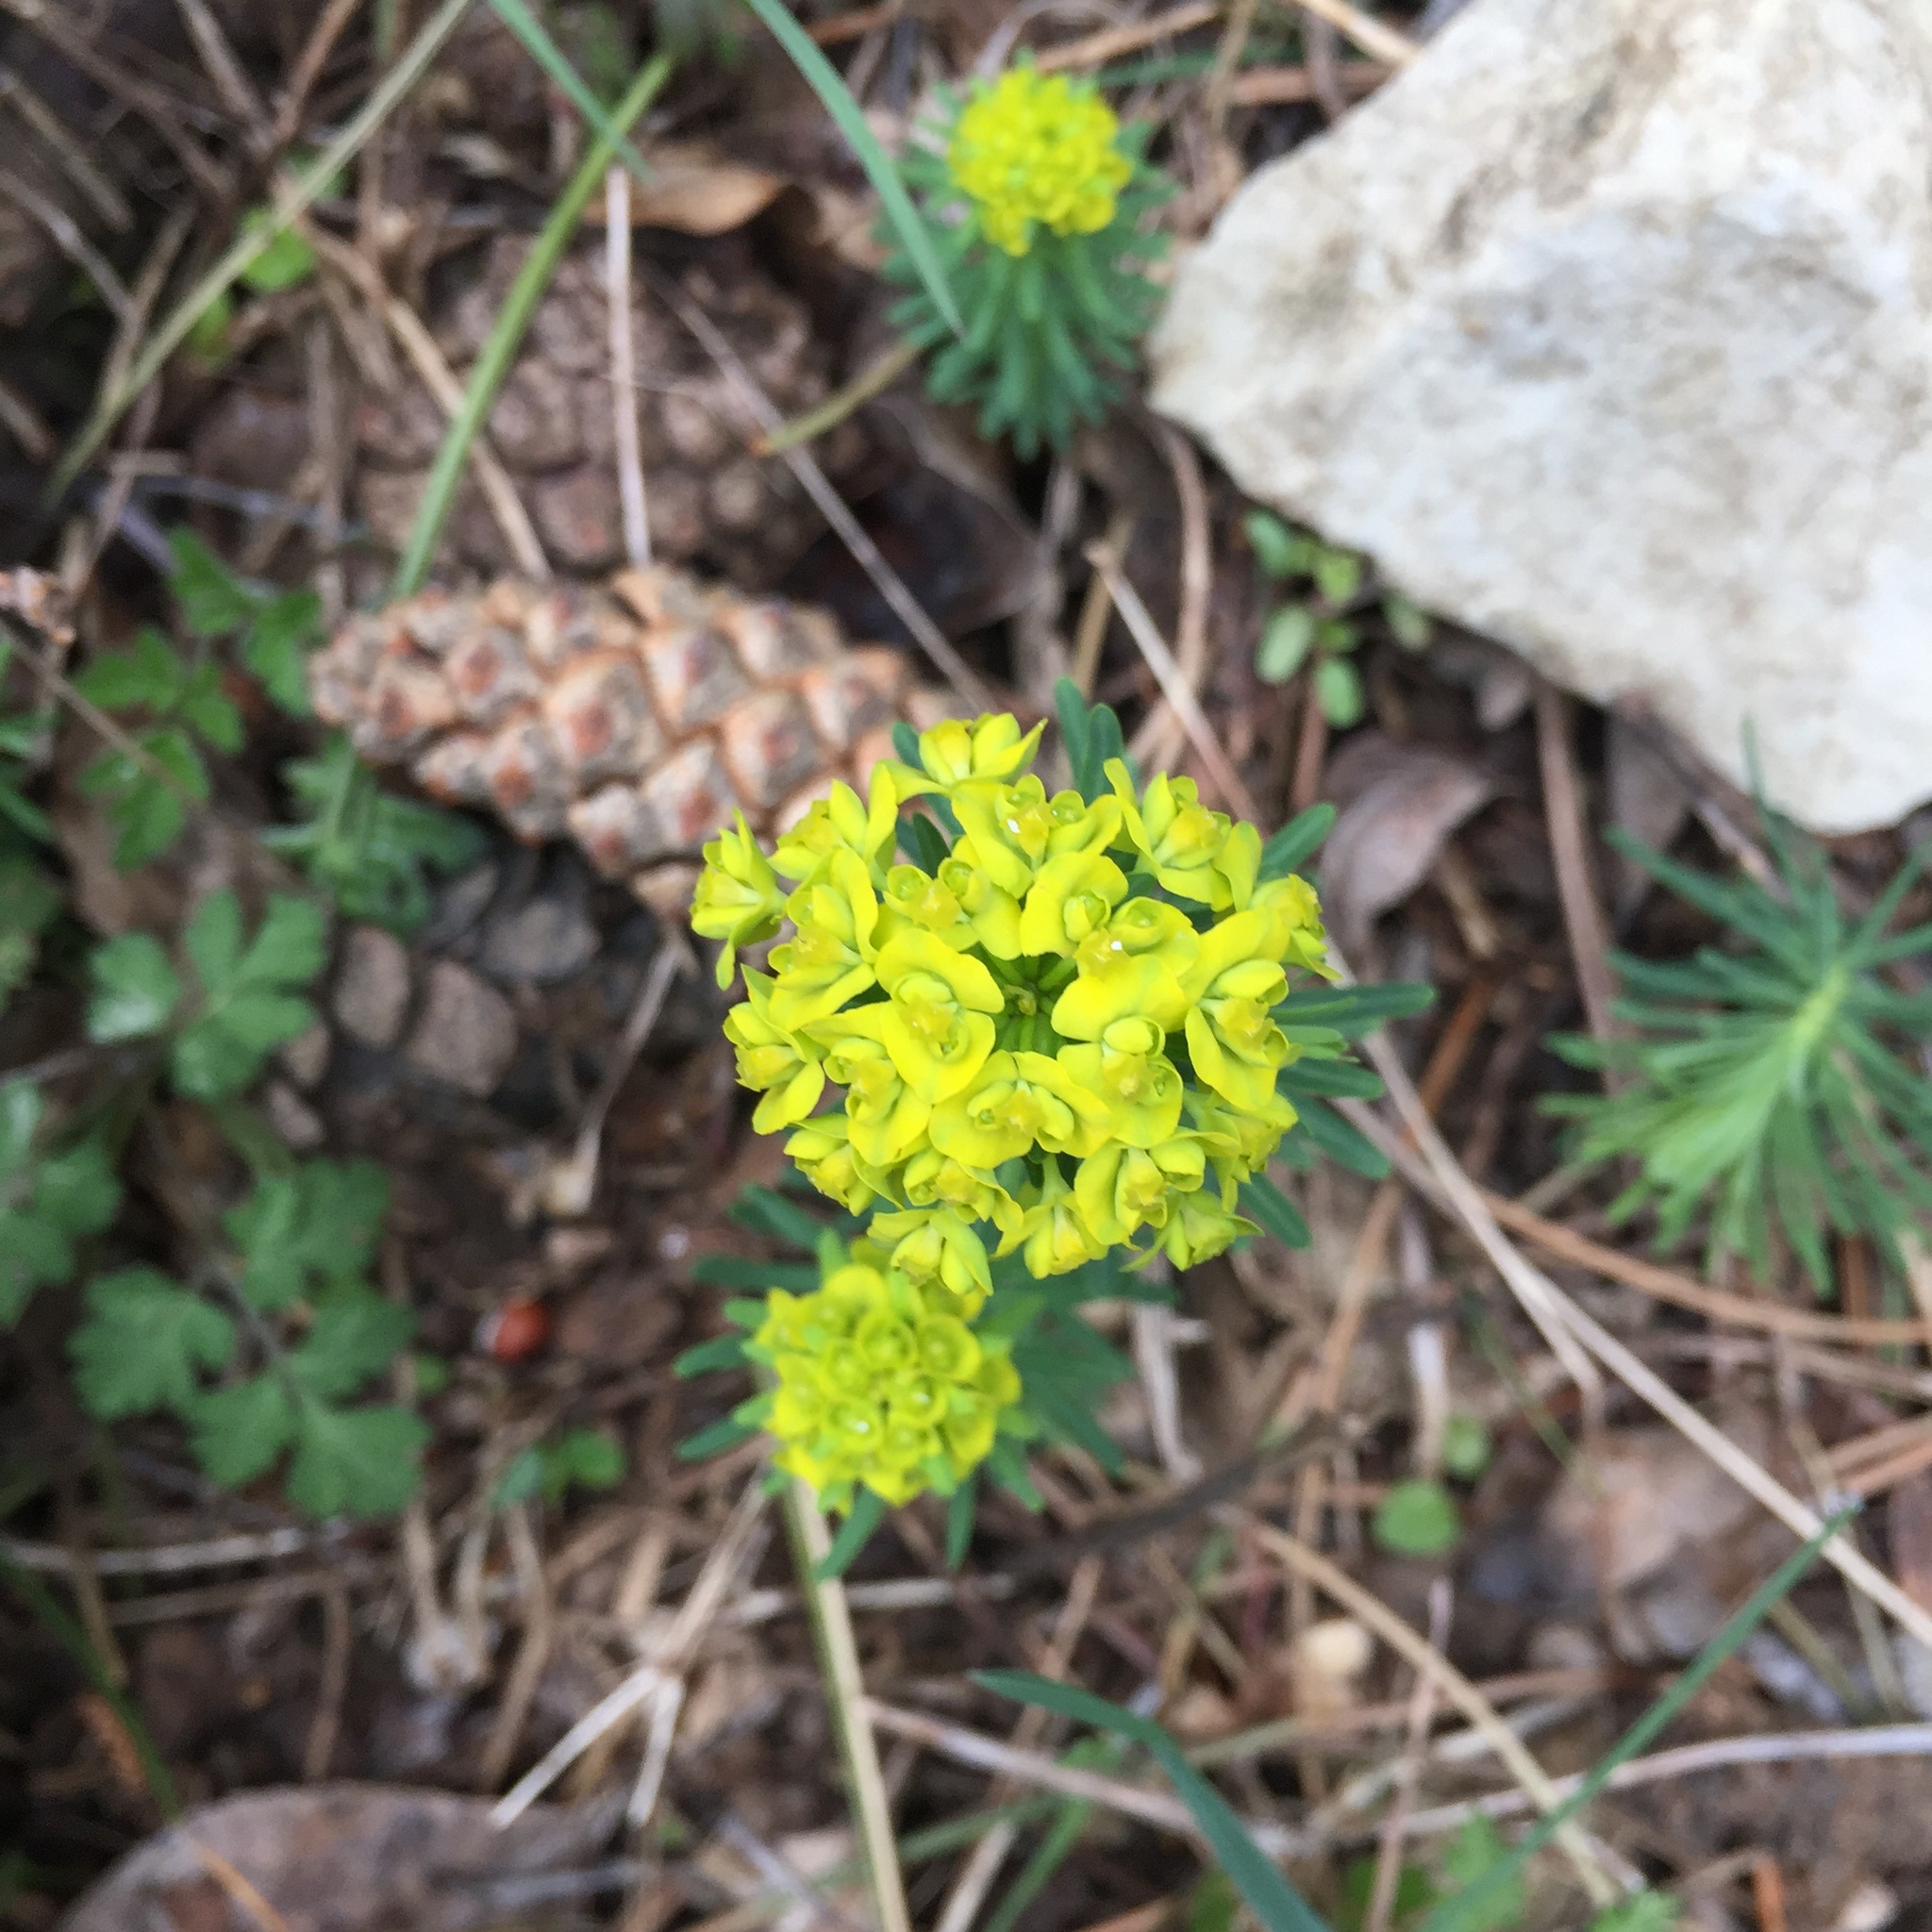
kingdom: Plantae
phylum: Tracheophyta
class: Magnoliopsida
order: Malpighiales
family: Euphorbiaceae
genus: Euphorbia
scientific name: Euphorbia cyparissias
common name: Cypress spurge
